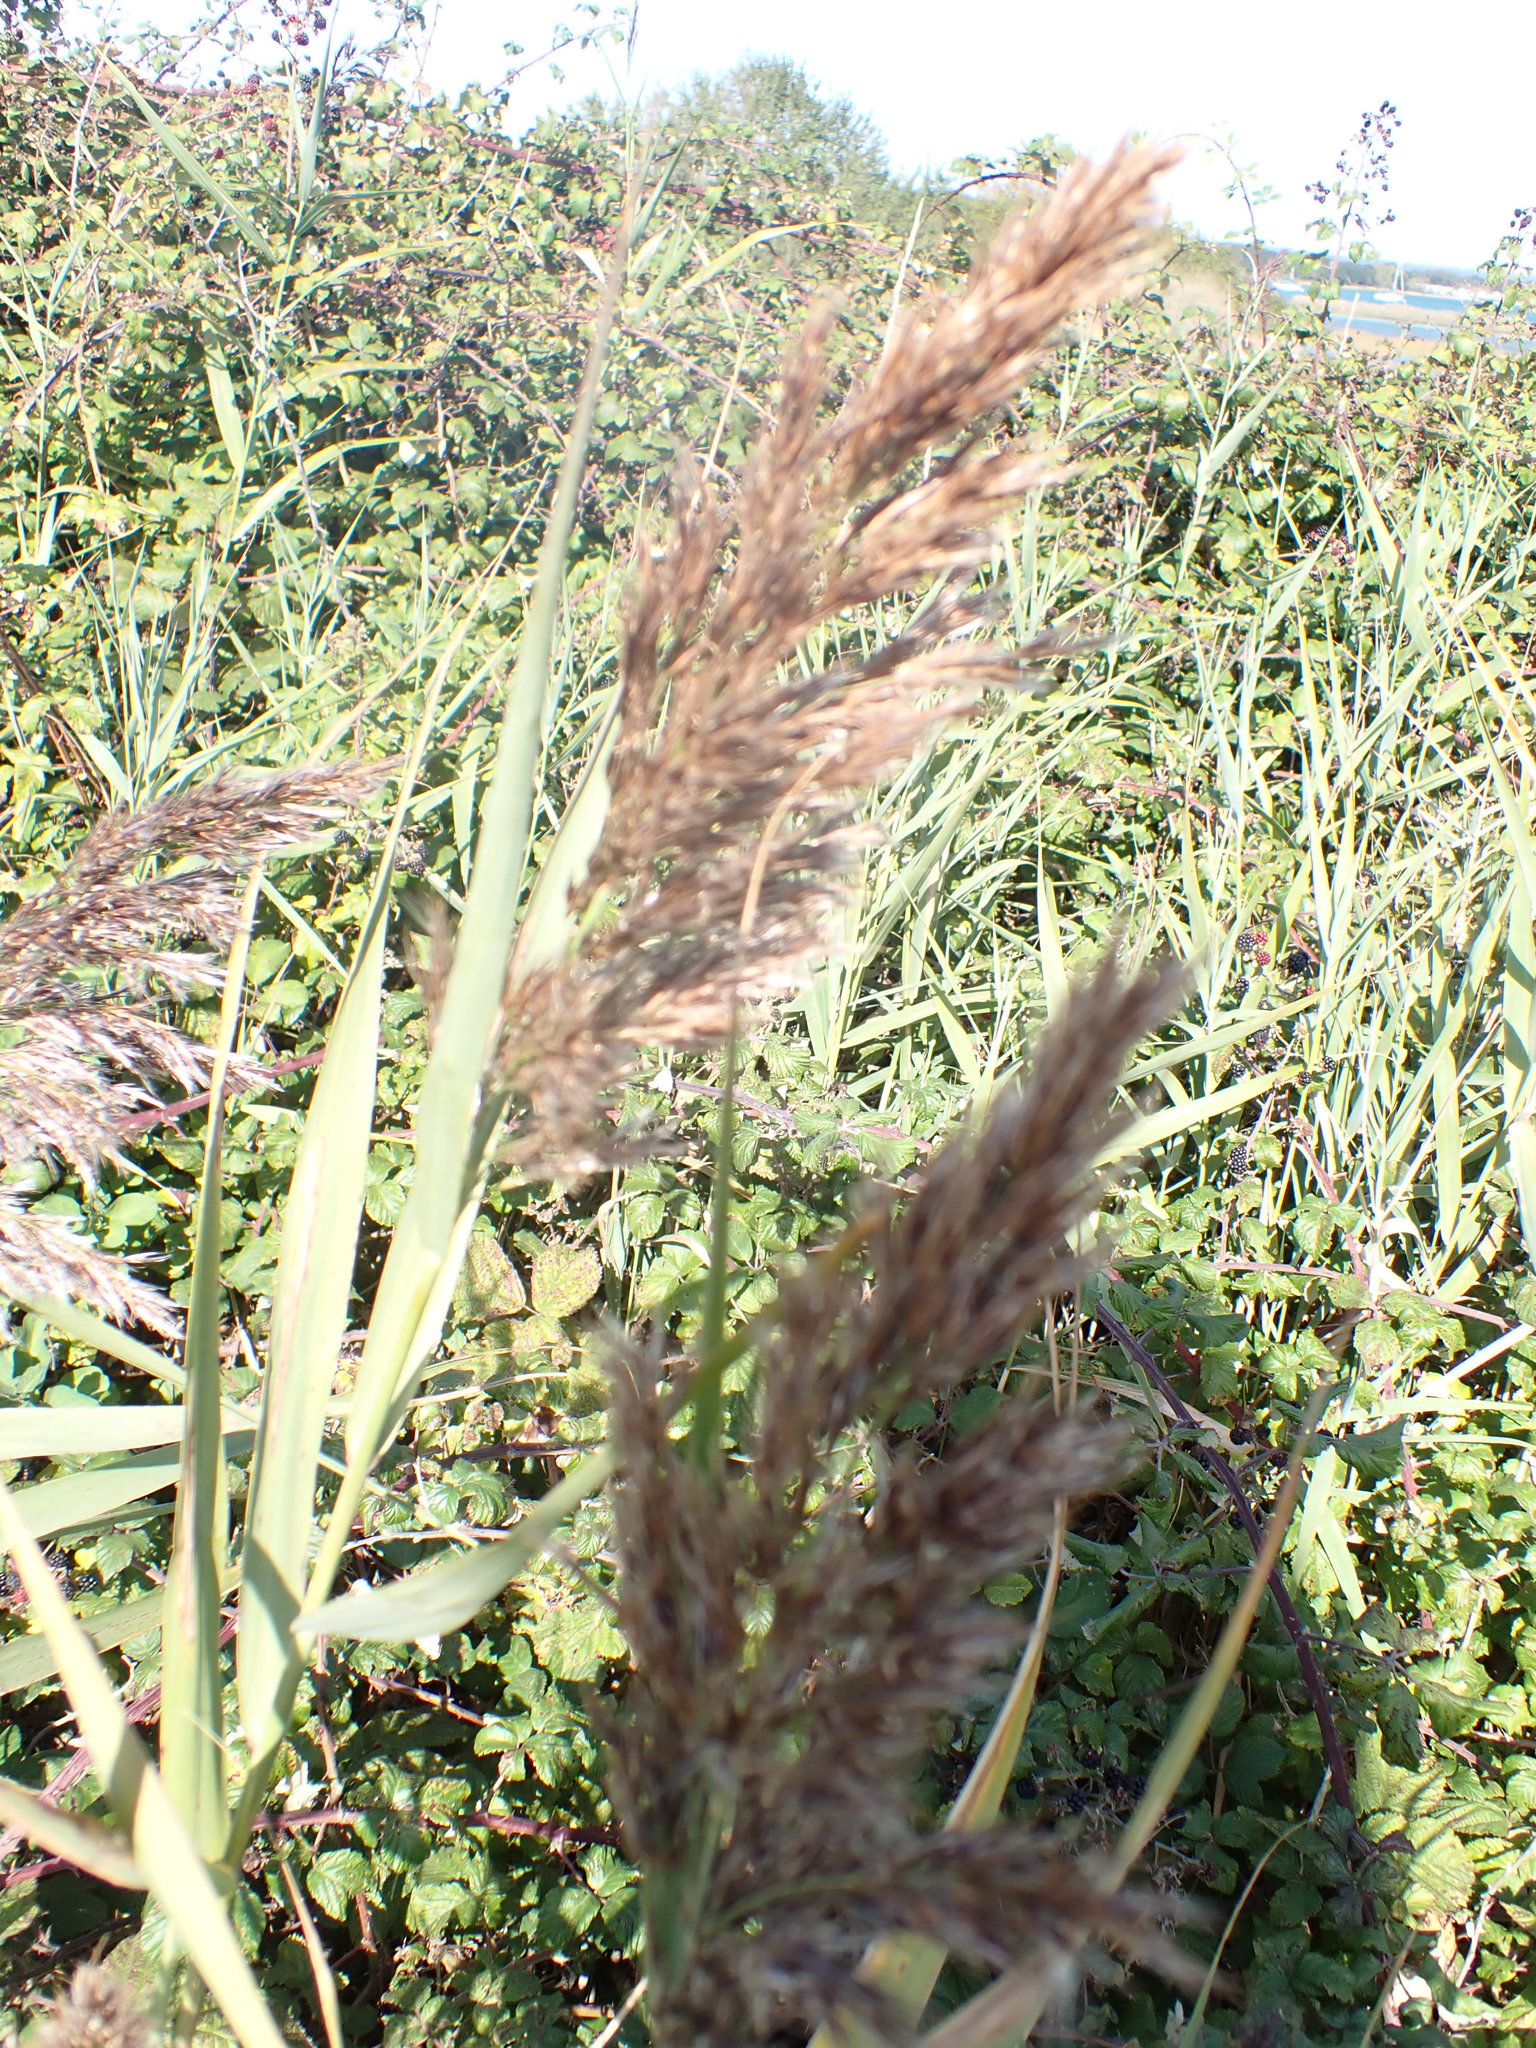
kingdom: Plantae
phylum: Tracheophyta
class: Liliopsida
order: Poales
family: Poaceae
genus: Phragmites
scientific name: Phragmites australis
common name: Common reed
